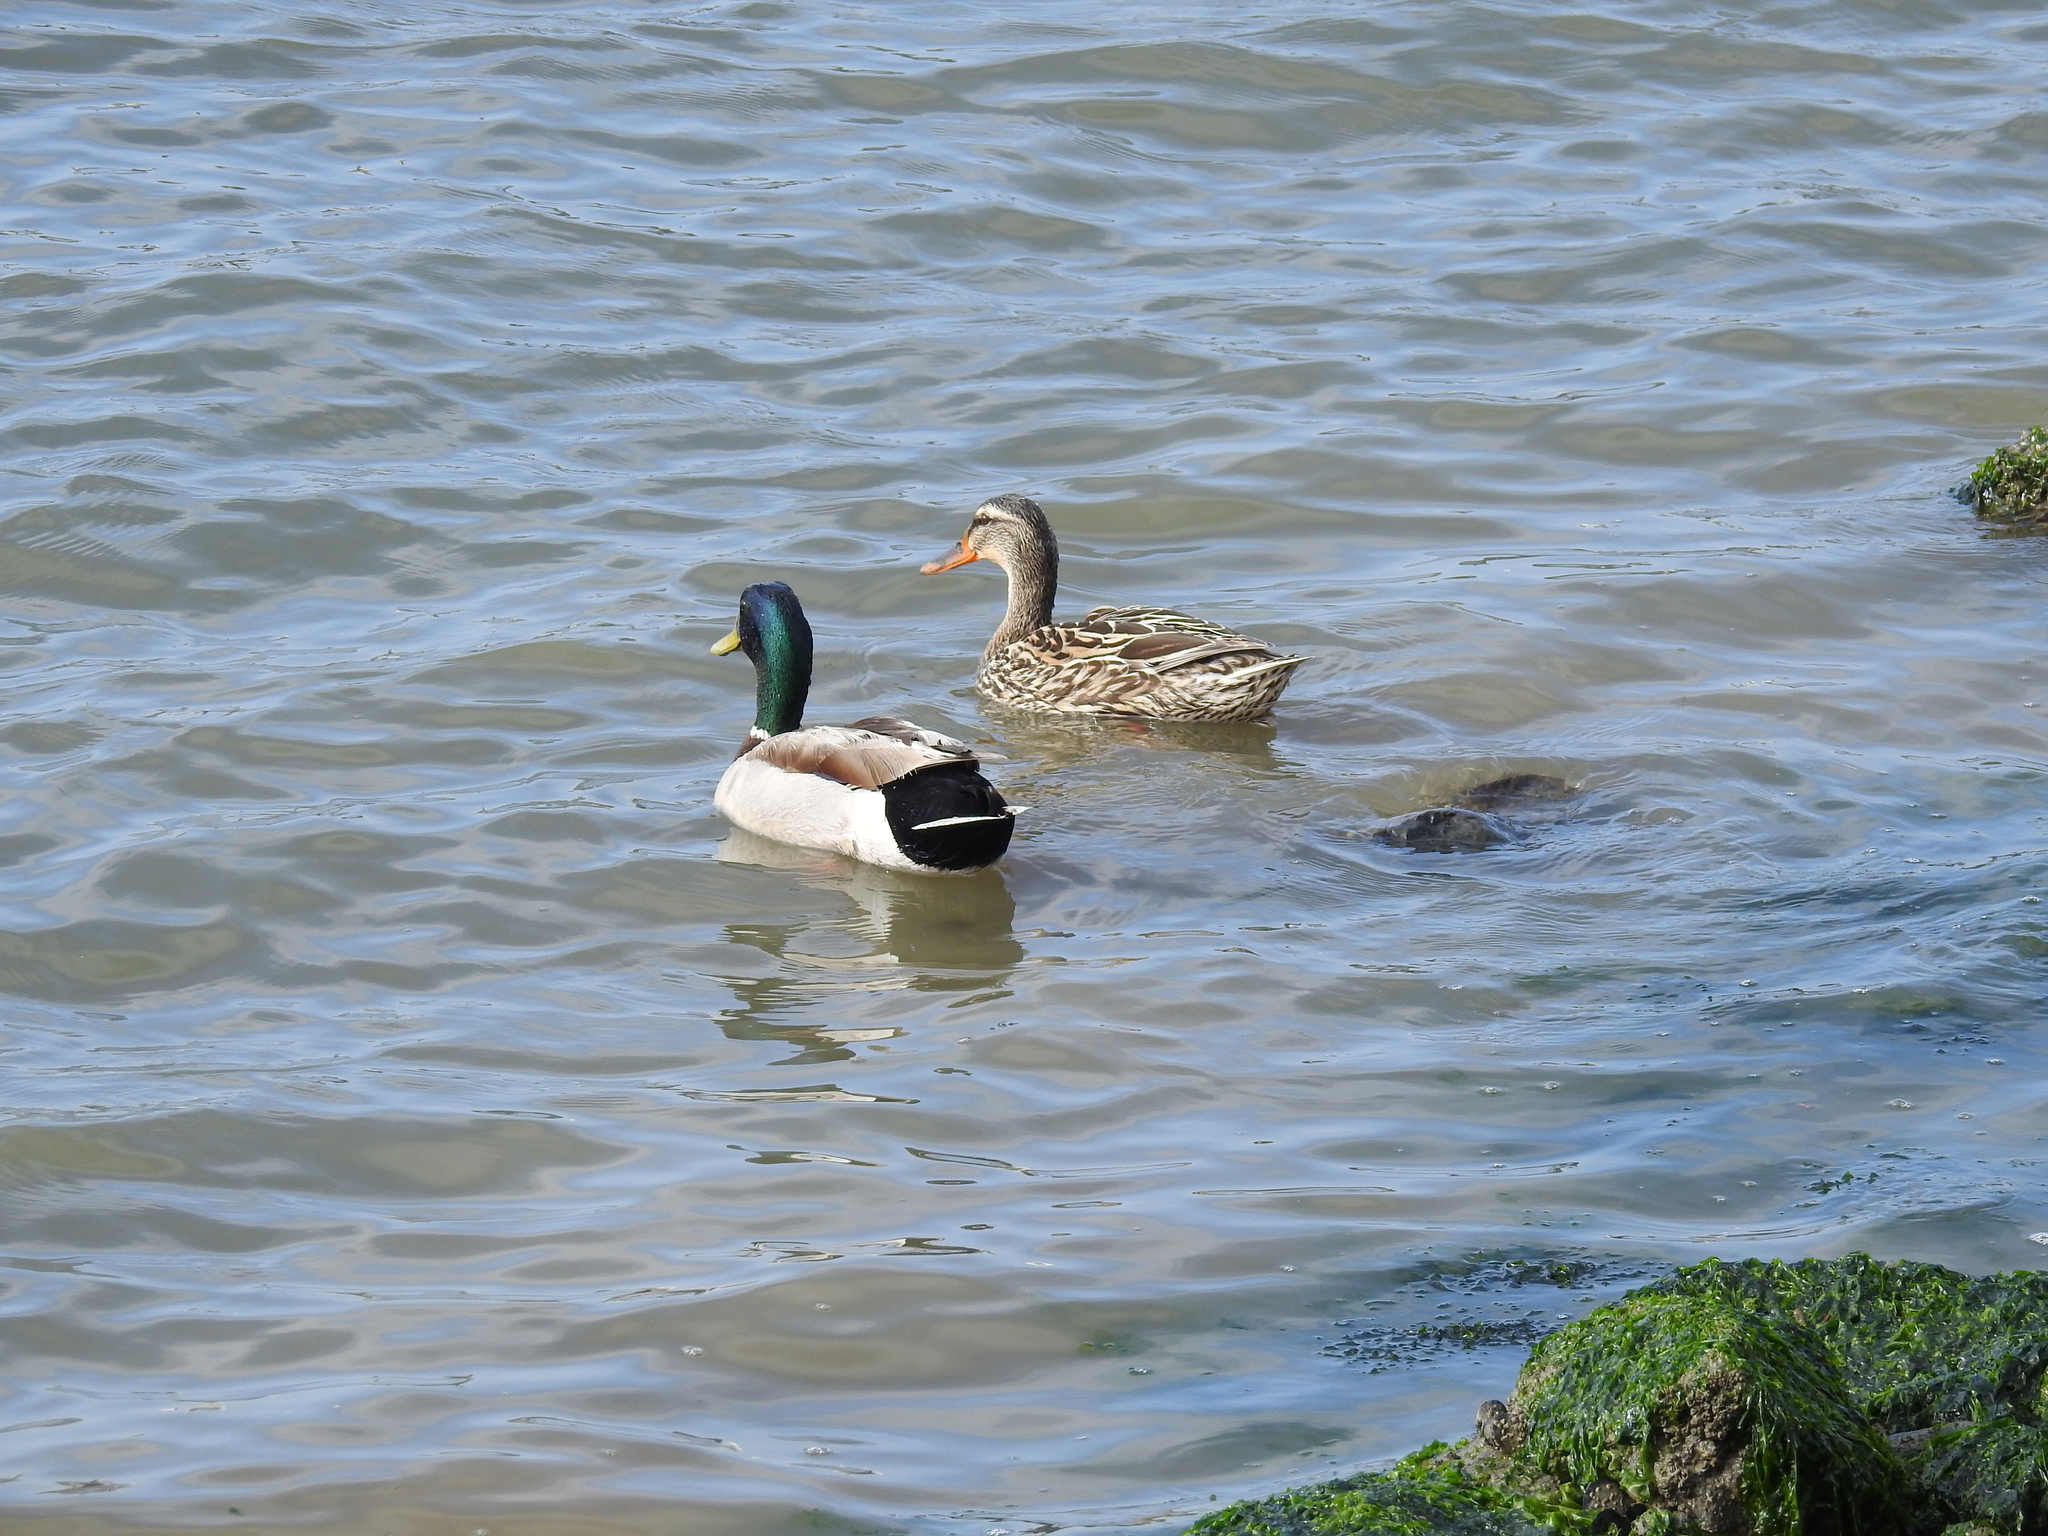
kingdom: Animalia
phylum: Chordata
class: Aves
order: Anseriformes
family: Anatidae
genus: Anas
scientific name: Anas platyrhynchos
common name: Mallard
